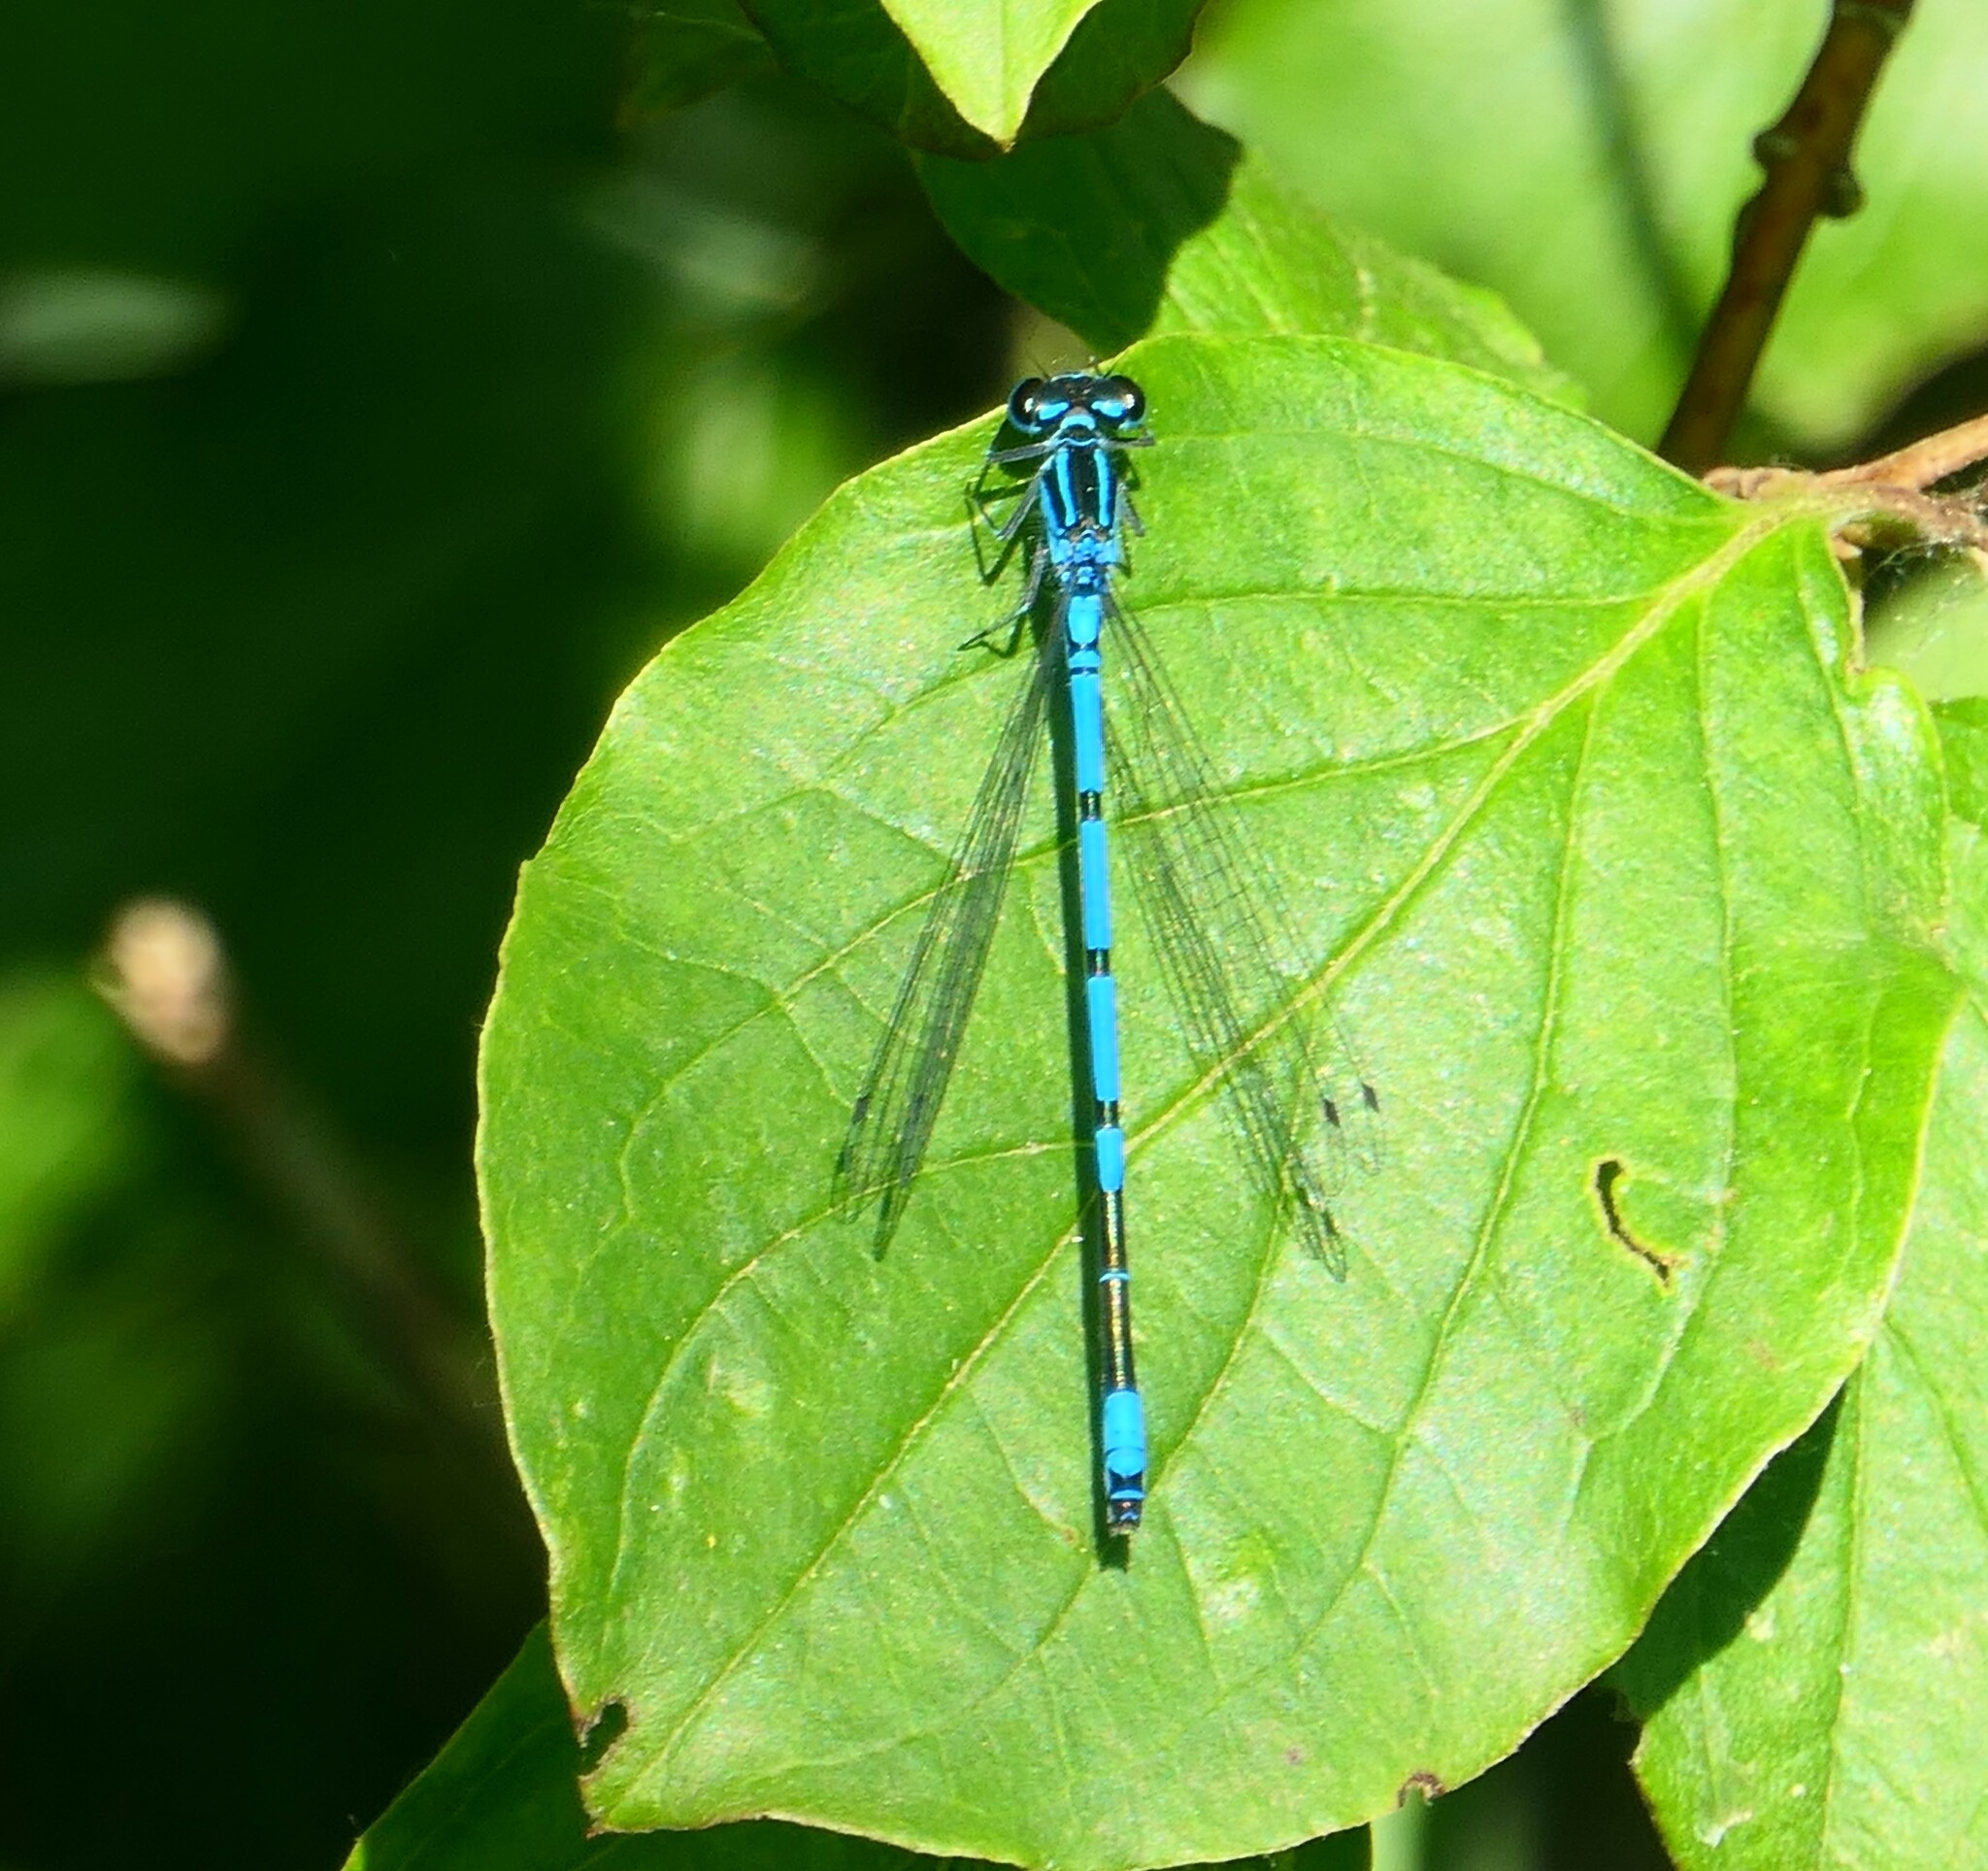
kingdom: Animalia
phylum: Arthropoda
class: Insecta
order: Odonata
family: Coenagrionidae
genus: Coenagrion
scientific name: Coenagrion puella
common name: Azure damselfly
